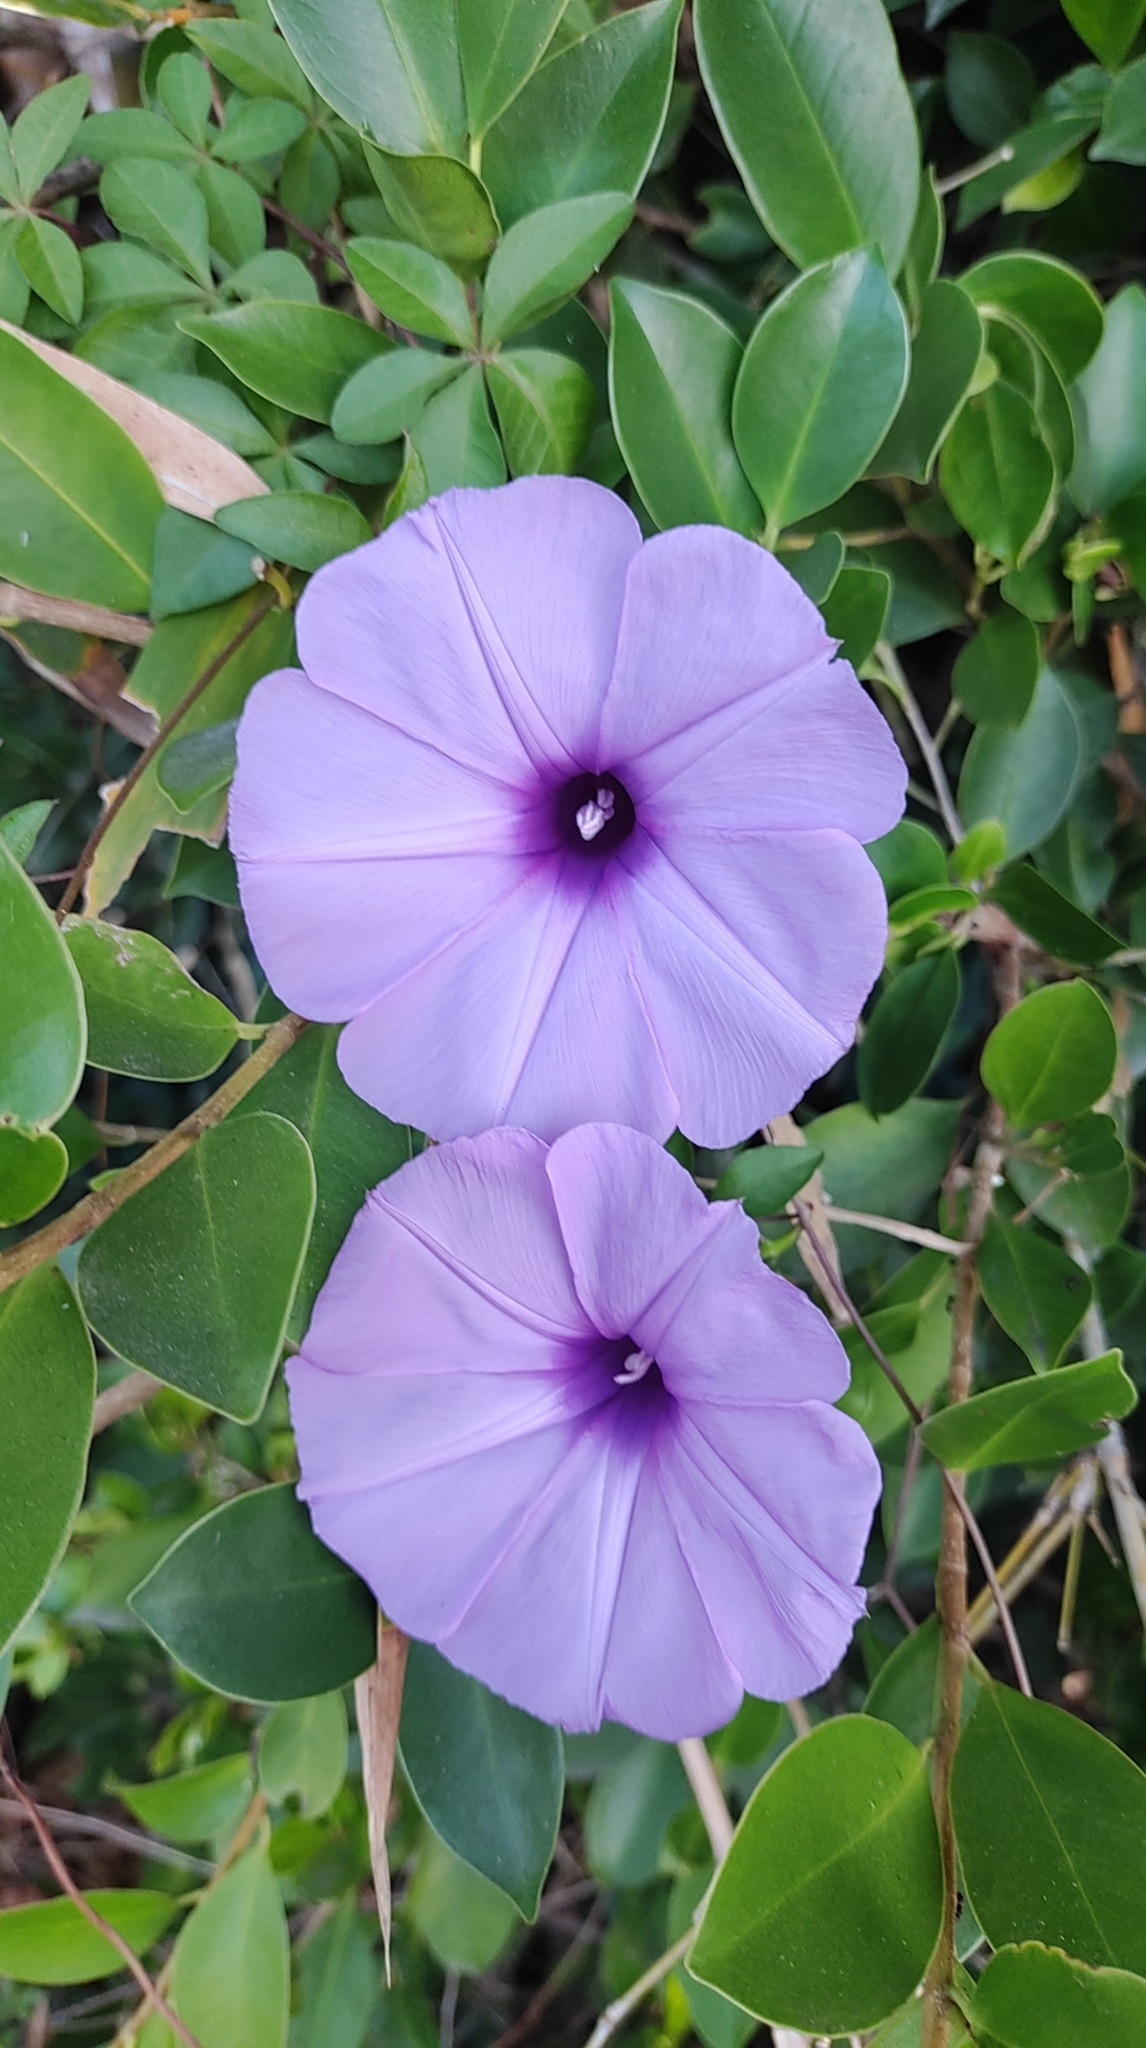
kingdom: Plantae
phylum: Tracheophyta
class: Magnoliopsida
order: Solanales
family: Convolvulaceae
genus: Ipomoea
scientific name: Ipomoea cairica
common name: Mile a minute vine
